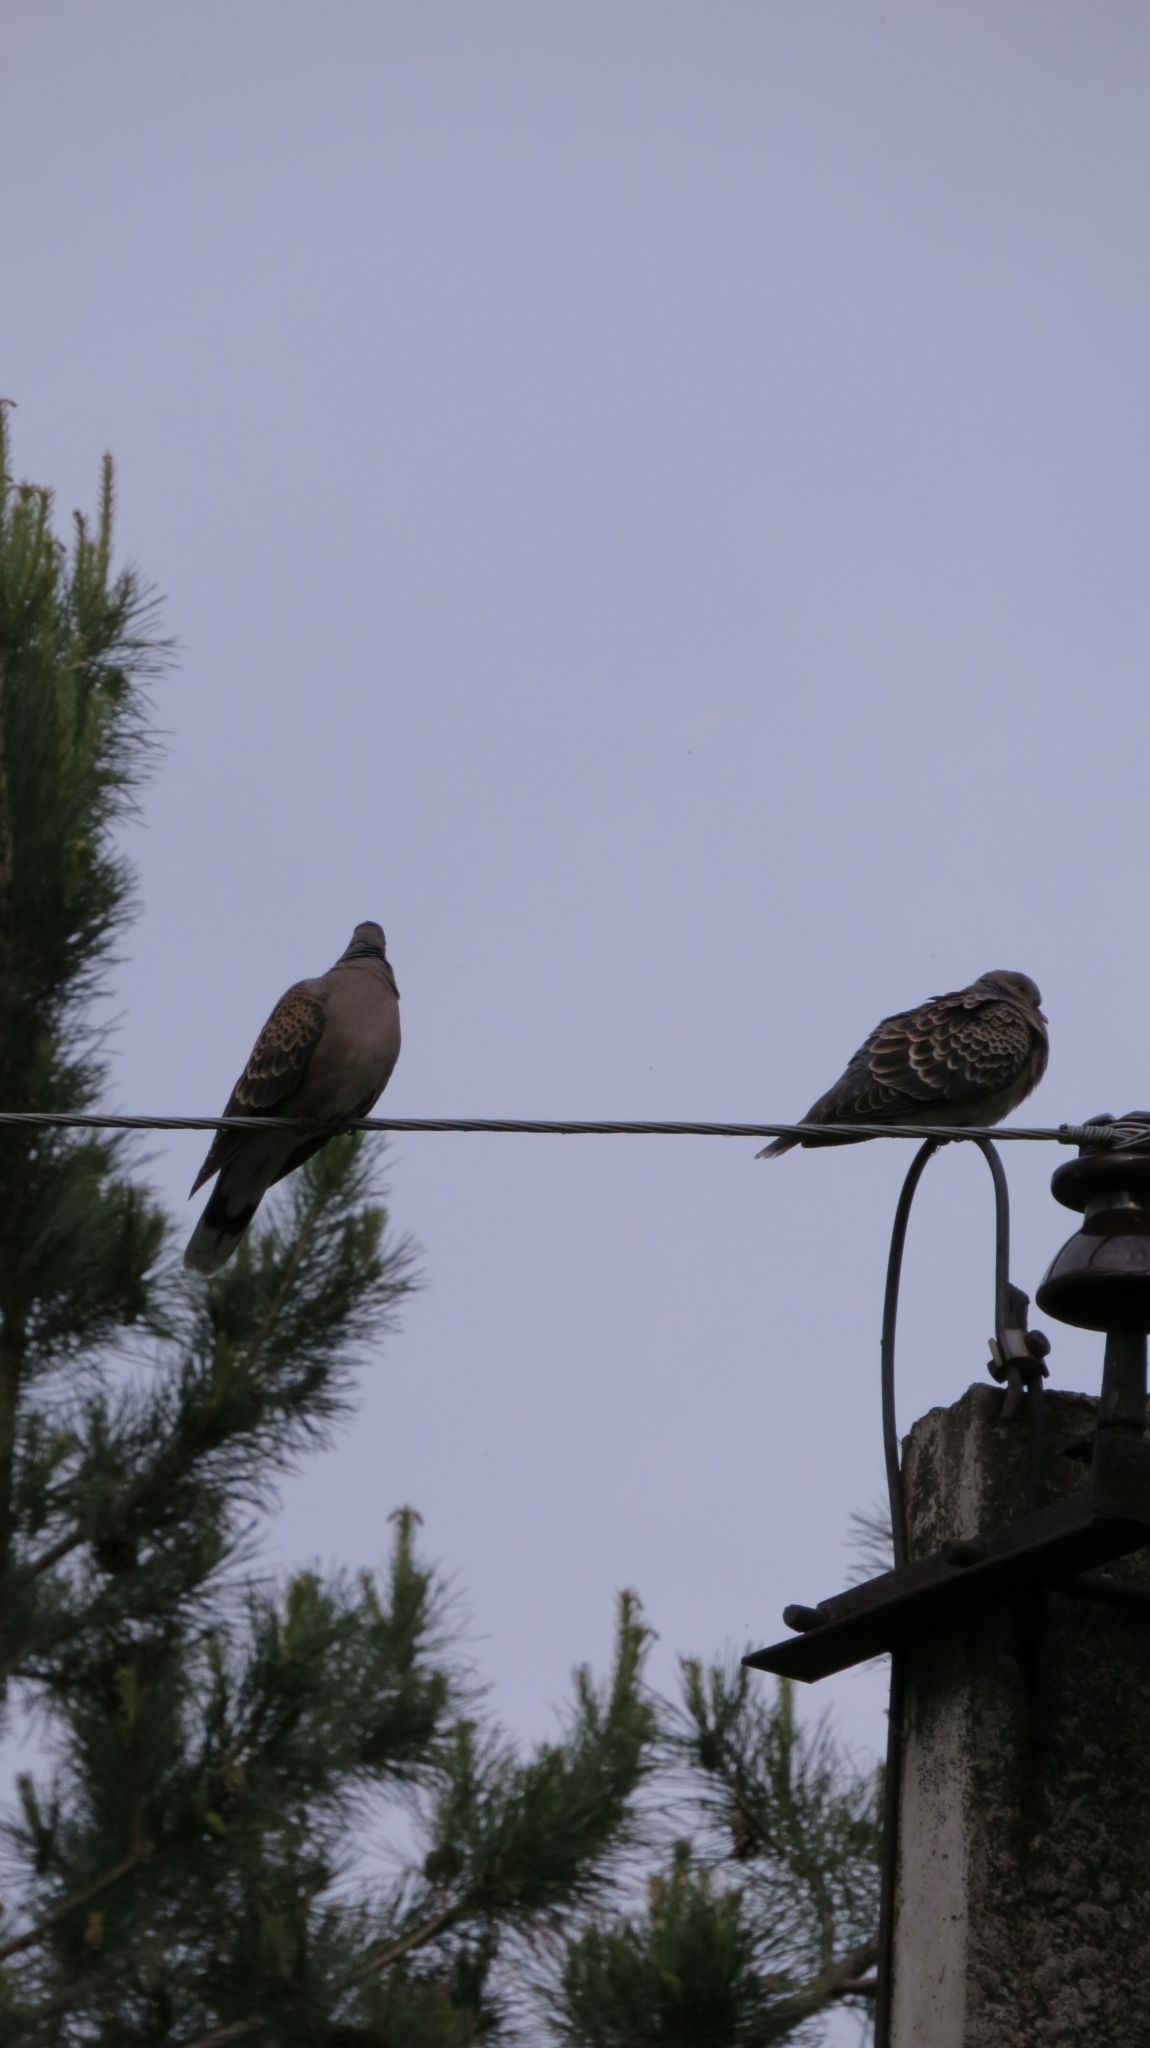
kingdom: Animalia
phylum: Chordata
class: Aves
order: Columbiformes
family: Columbidae
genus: Streptopelia
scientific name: Streptopelia orientalis
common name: Oriental turtle dove
